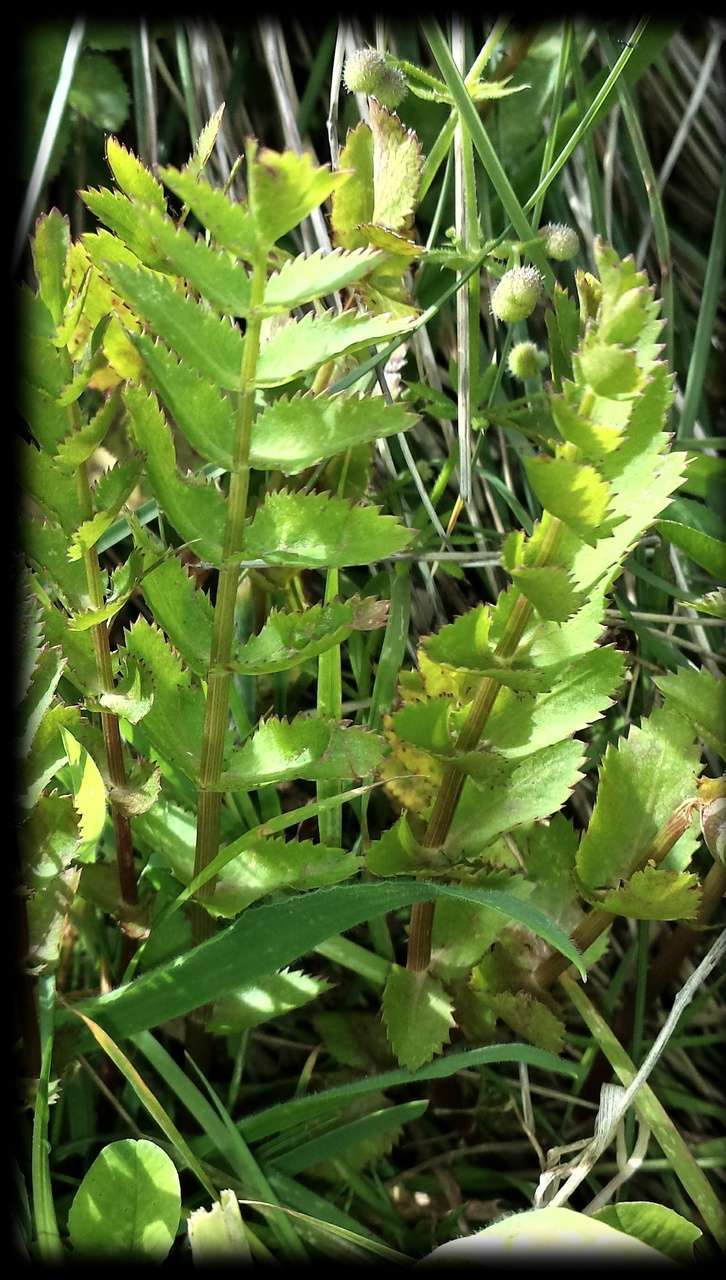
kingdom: Plantae
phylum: Tracheophyta
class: Magnoliopsida
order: Apiales
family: Apiaceae
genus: Berula
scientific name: Berula erecta
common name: Lesser water-parsnip
